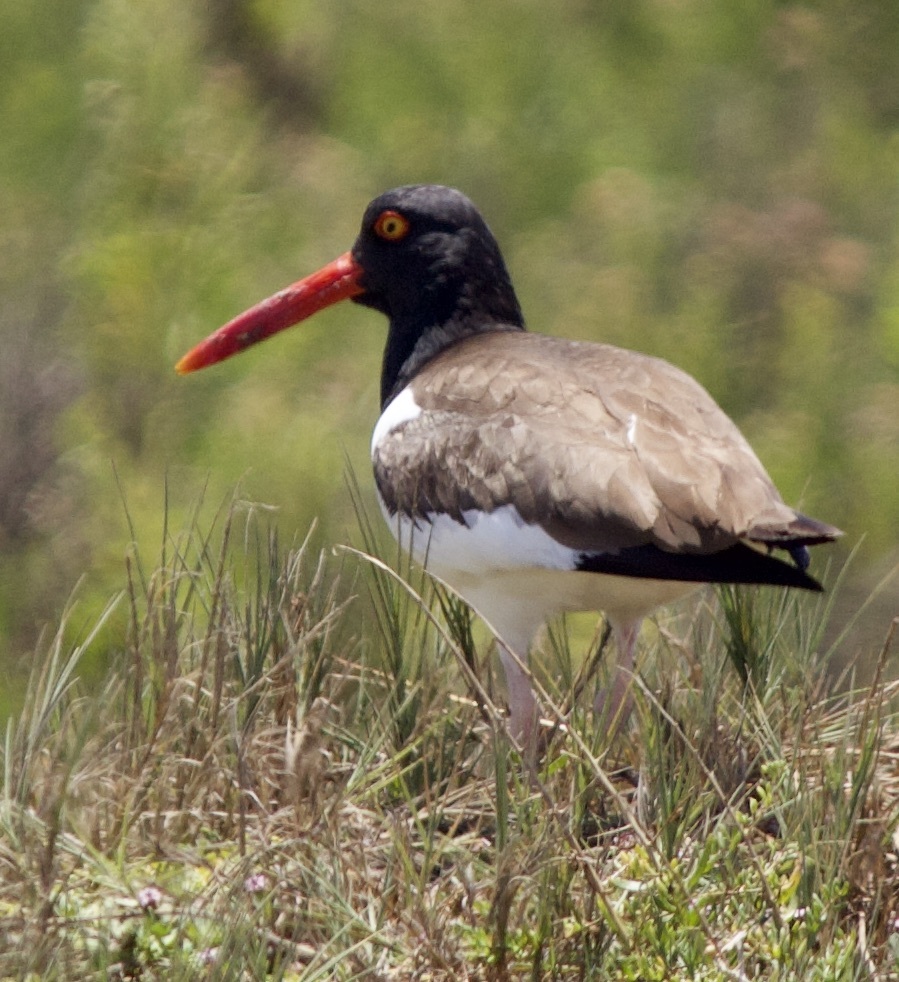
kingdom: Animalia
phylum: Chordata
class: Aves
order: Charadriiformes
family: Haematopodidae
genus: Haematopus
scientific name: Haematopus palliatus
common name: American oystercatcher
